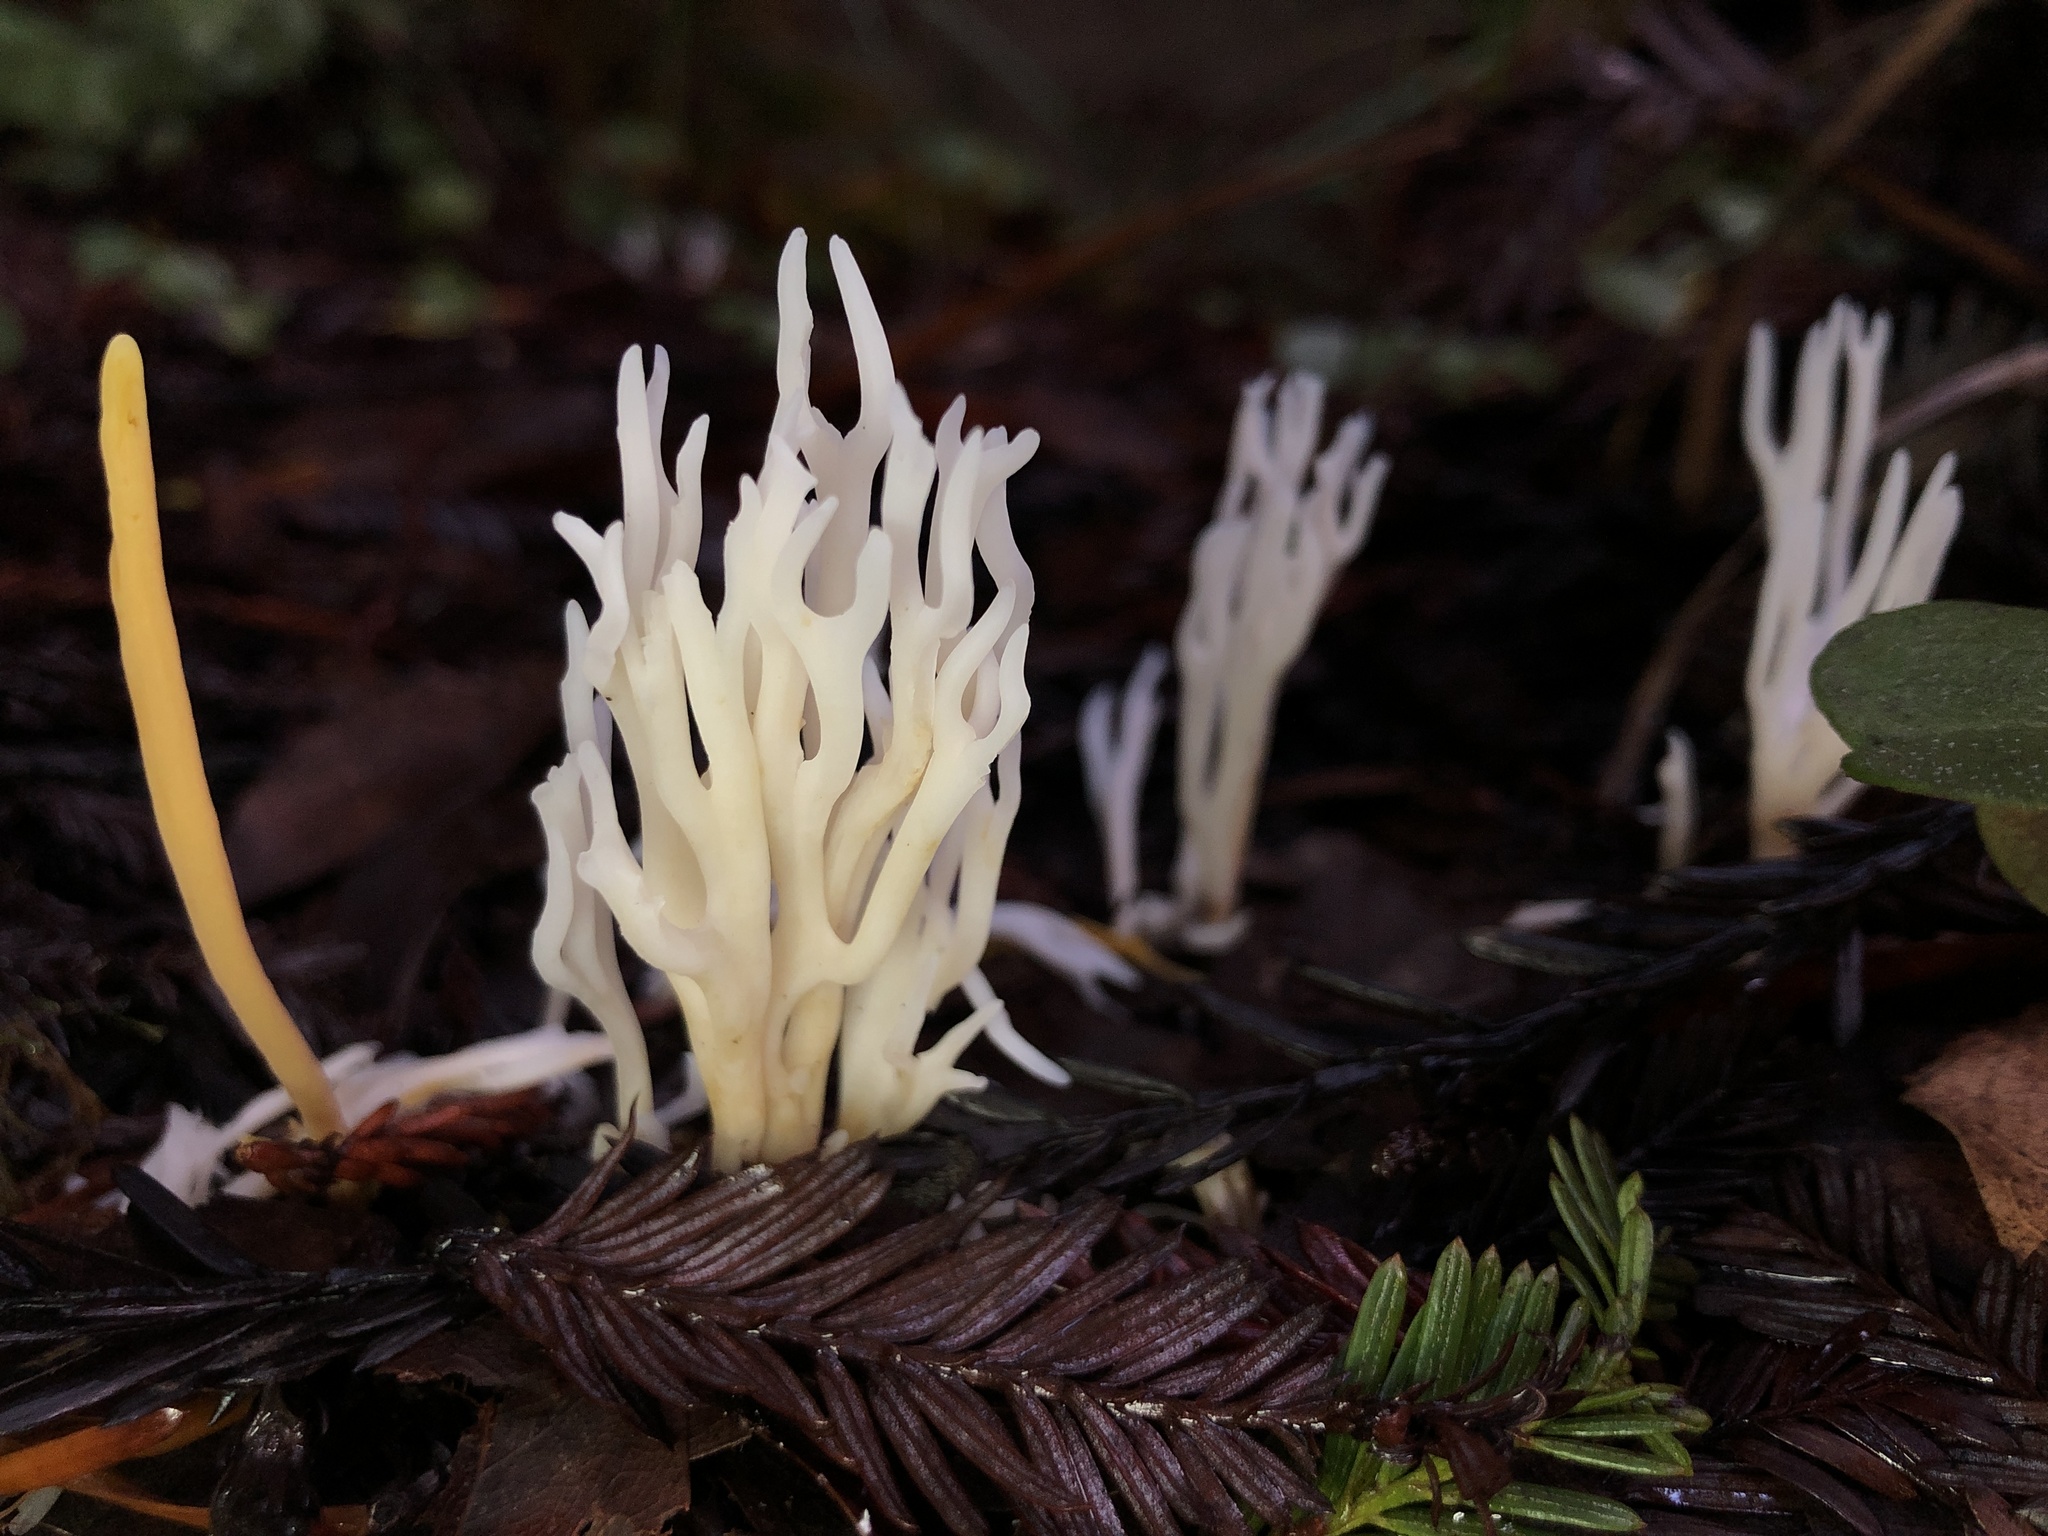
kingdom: Fungi
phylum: Basidiomycota
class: Agaricomycetes
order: Agaricales
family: Clavariaceae
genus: Ramariopsis
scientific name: Ramariopsis kunzei
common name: Ivory coral
